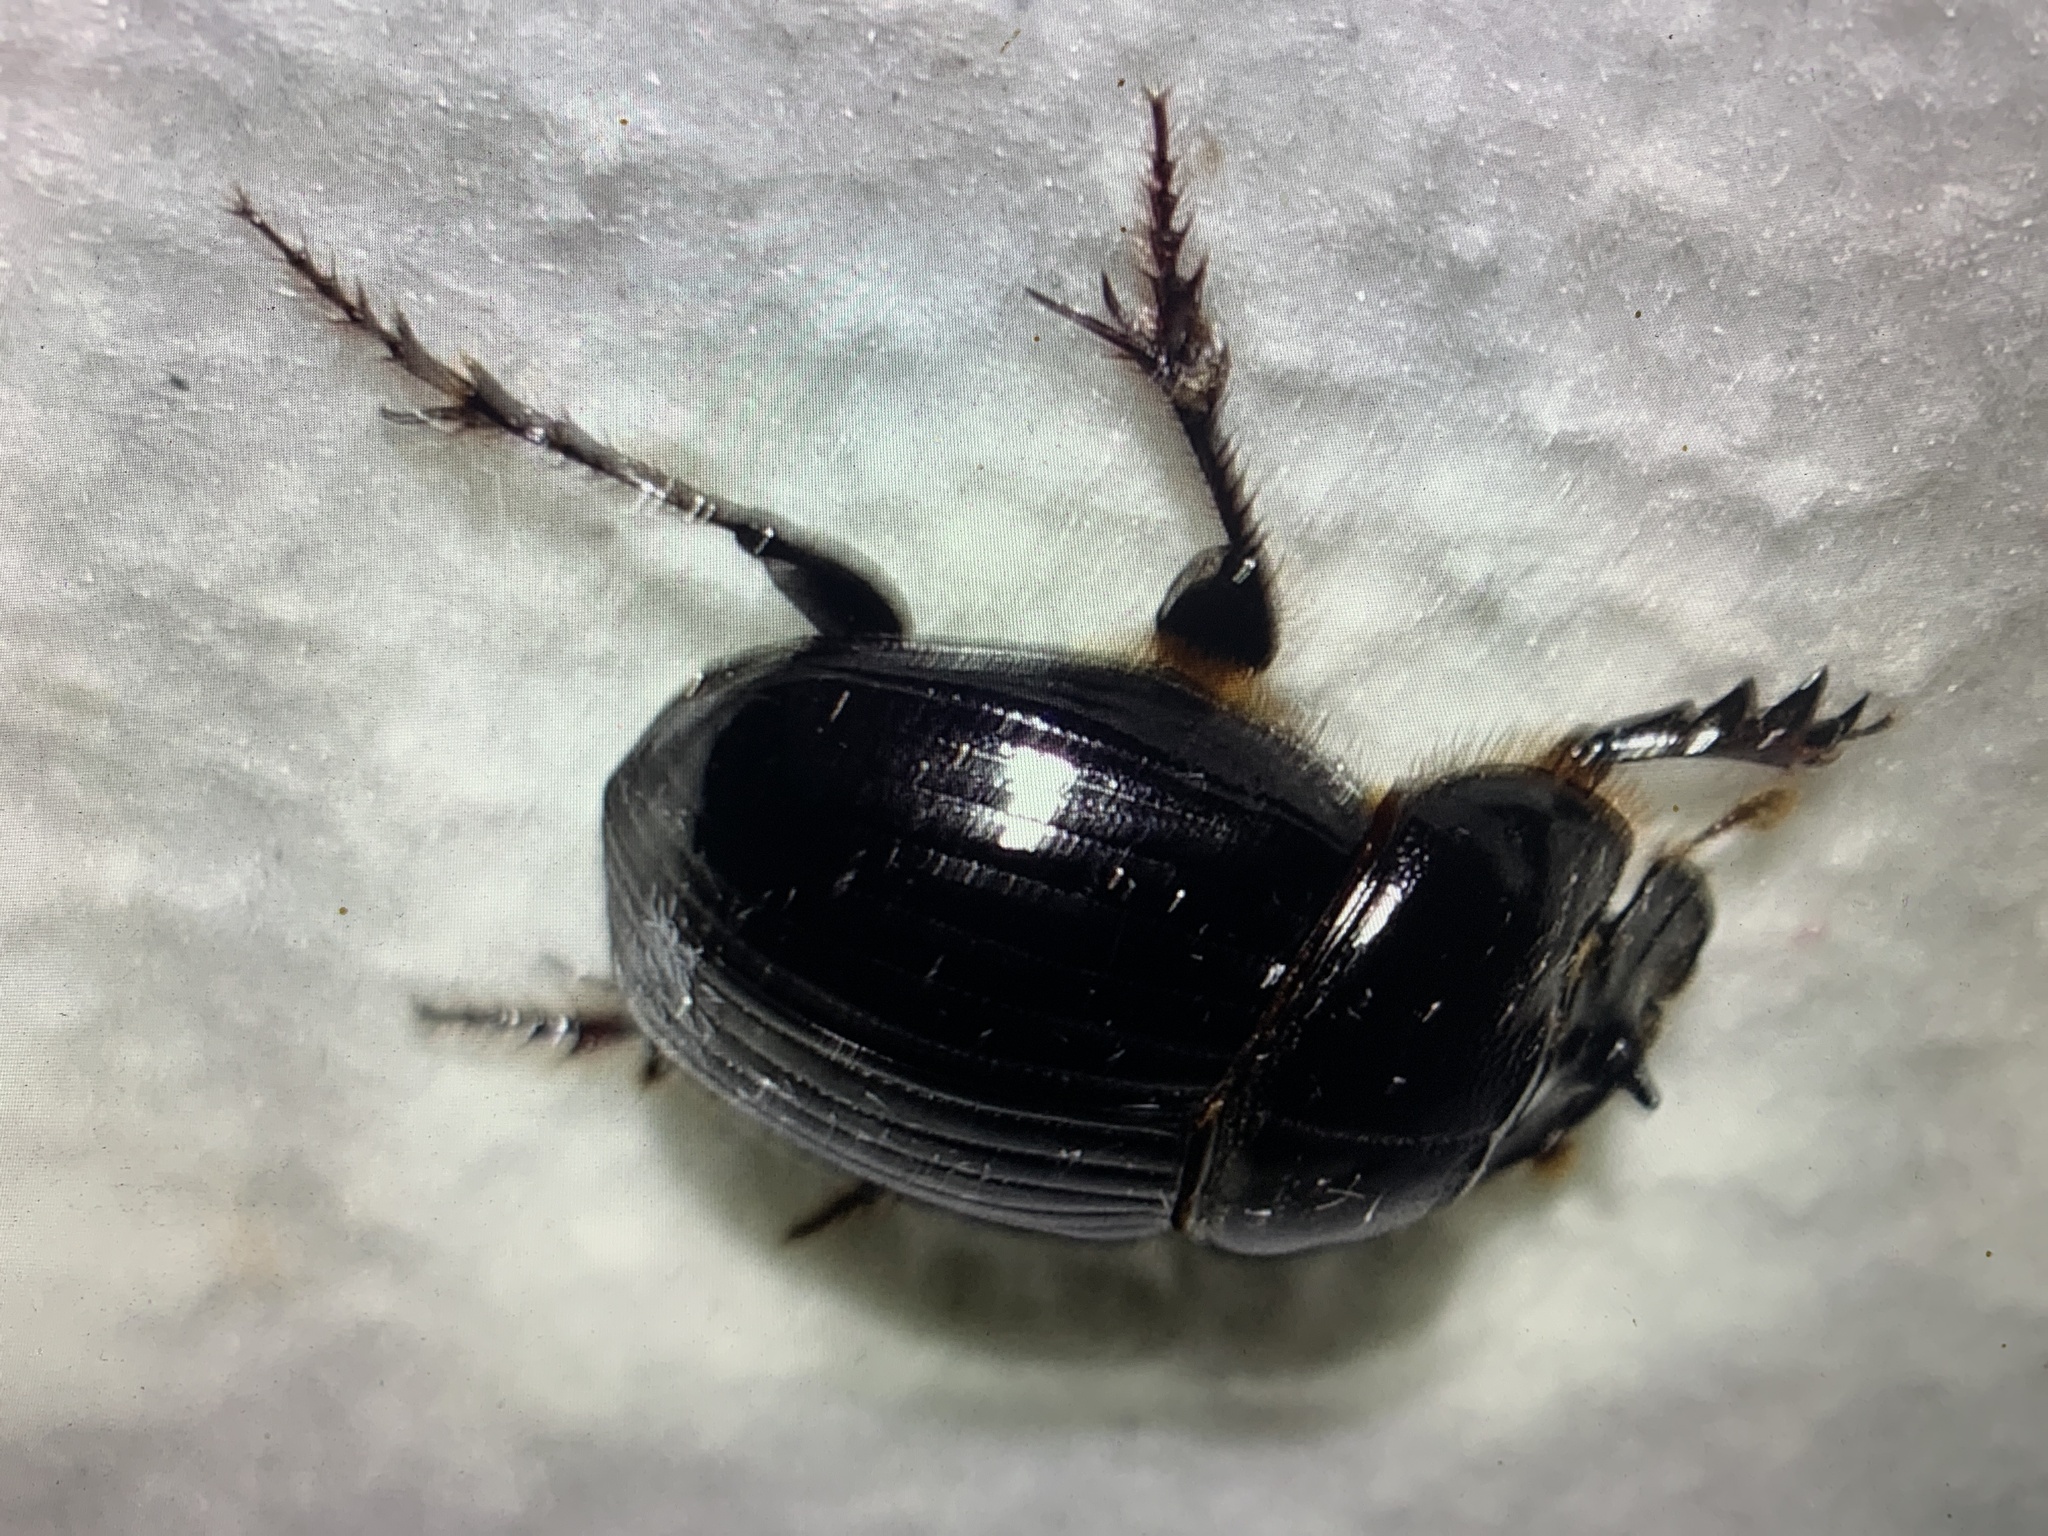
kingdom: Animalia
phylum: Arthropoda
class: Insecta
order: Coleoptera
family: Scarabaeidae
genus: Copris
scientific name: Copris lunaris
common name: Horned dung beetle
